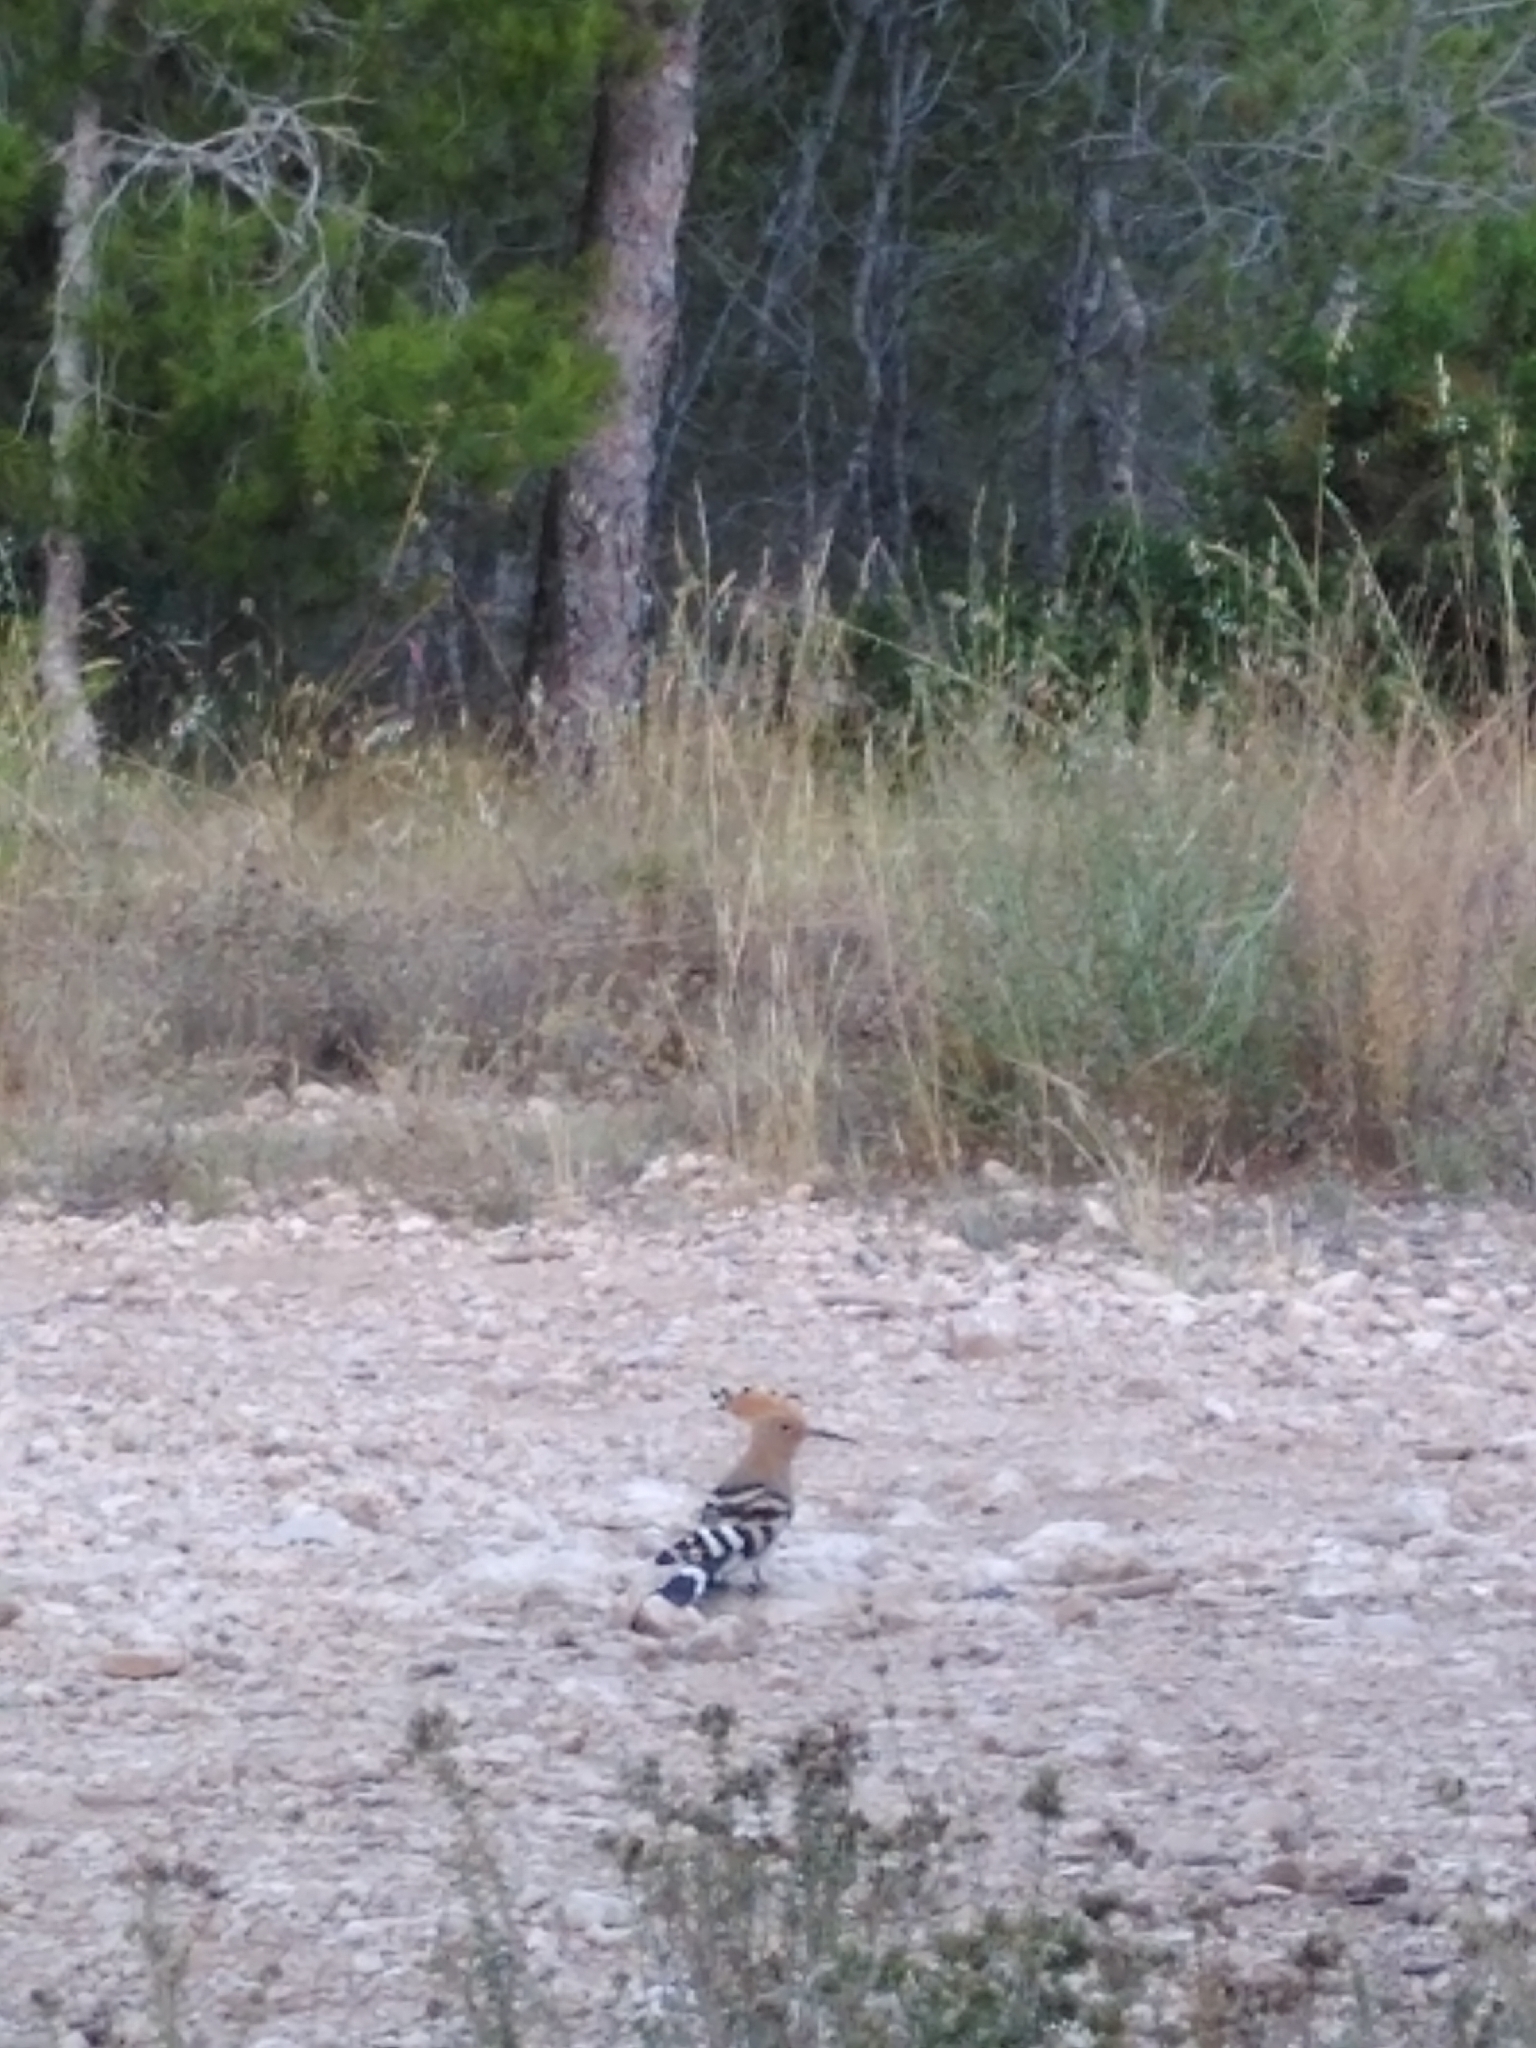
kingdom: Animalia
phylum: Chordata
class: Aves
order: Bucerotiformes
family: Upupidae
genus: Upupa
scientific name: Upupa epops
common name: Eurasian hoopoe
